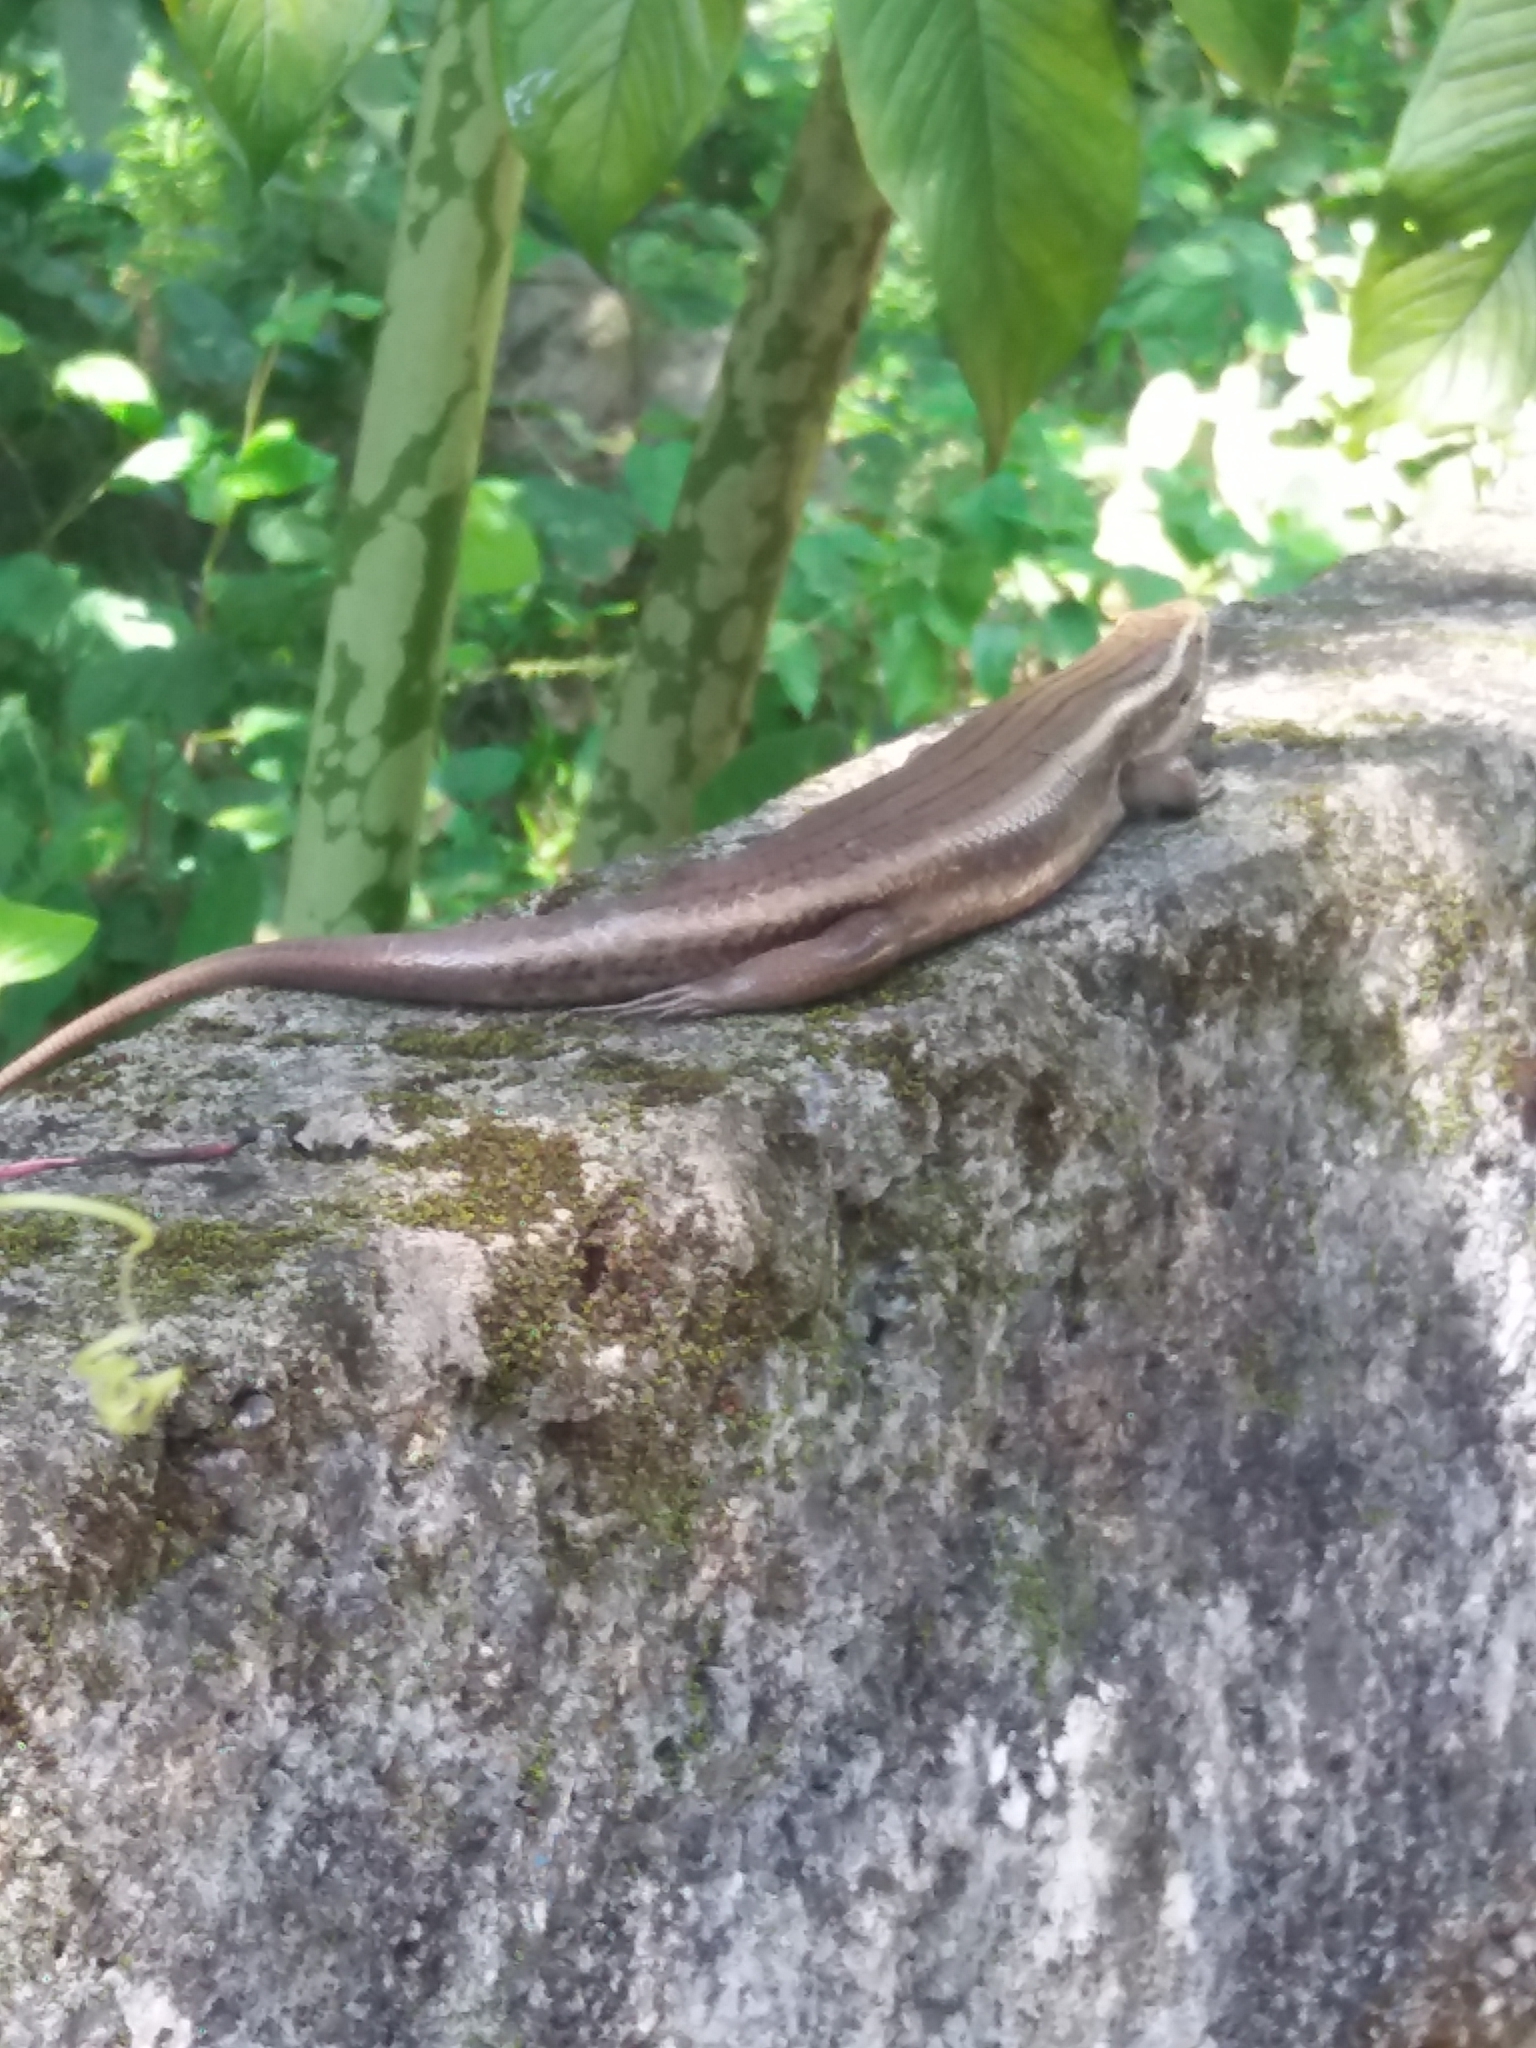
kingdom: Animalia
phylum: Chordata
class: Squamata
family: Scincidae
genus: Eutropis
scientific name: Eutropis carinata
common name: Keeled indian mabuya
